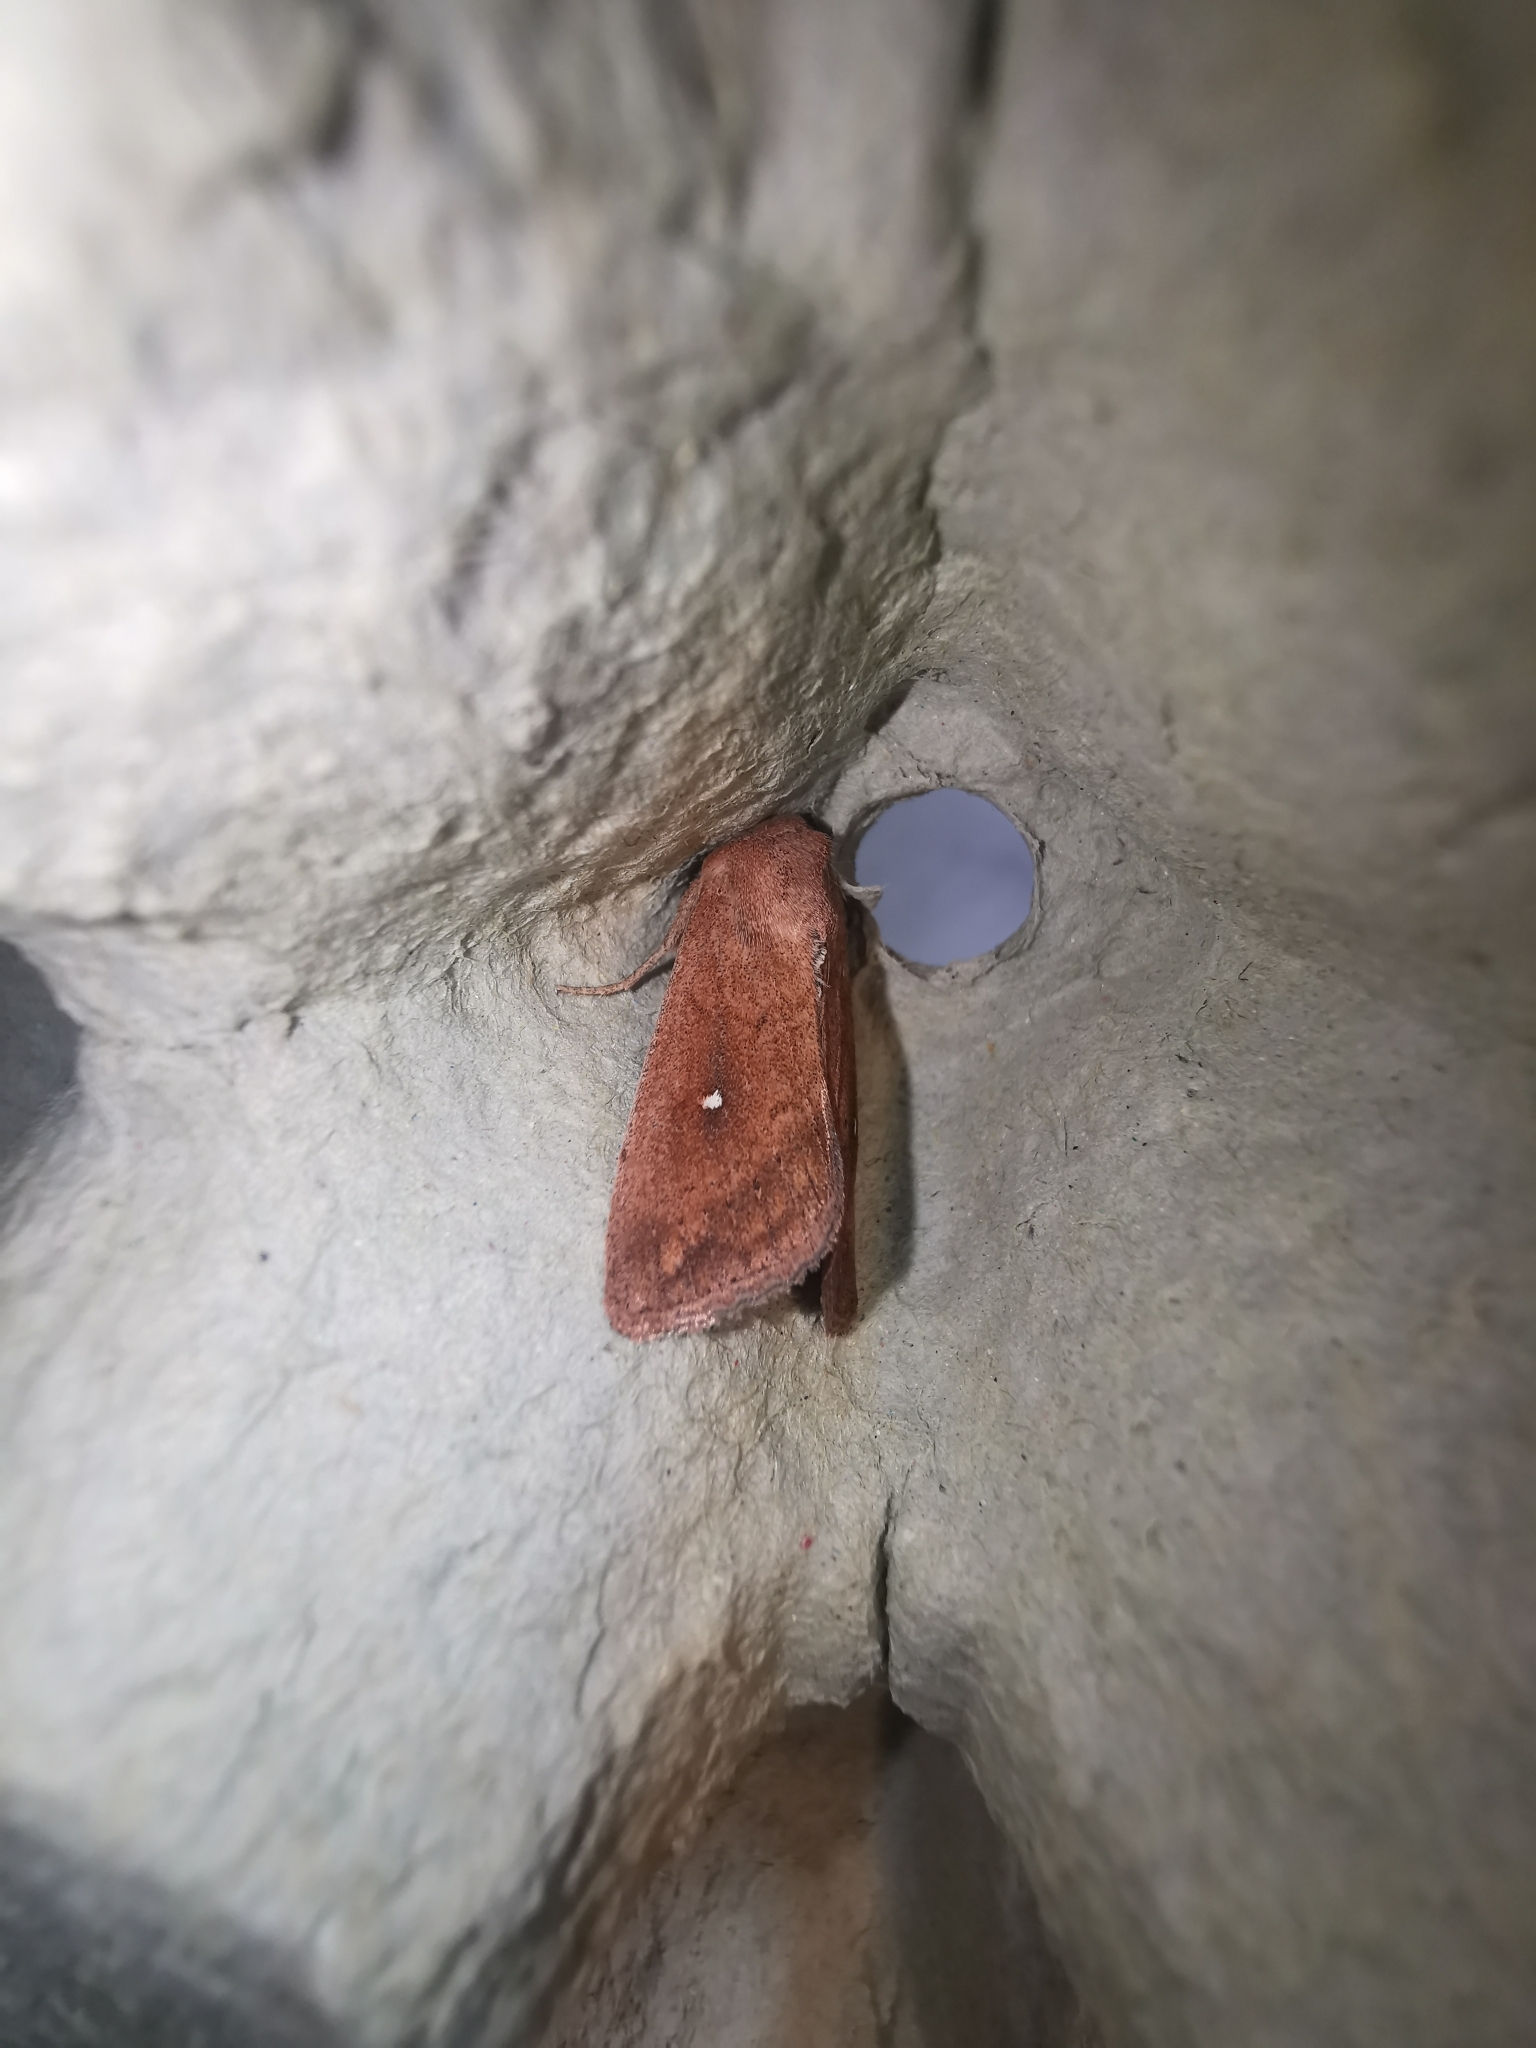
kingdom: Animalia
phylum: Arthropoda
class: Insecta
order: Lepidoptera
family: Noctuidae
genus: Mythimna
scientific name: Mythimna albipuncta
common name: White-point
